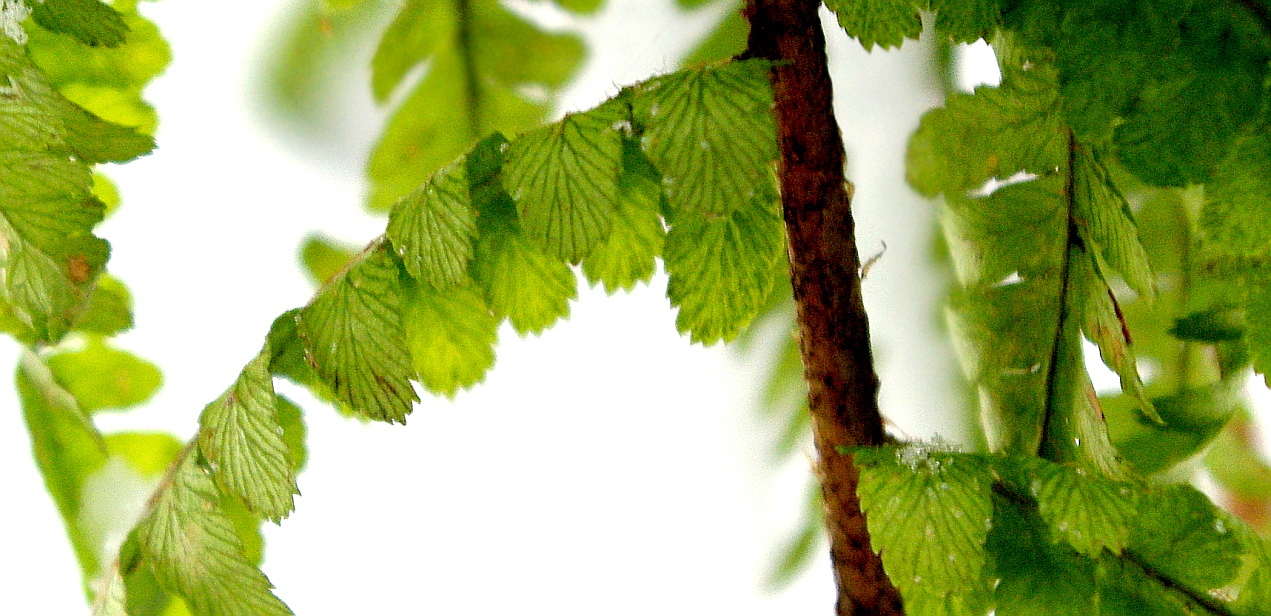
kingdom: Plantae
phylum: Tracheophyta
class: Polypodiopsida
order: Polypodiales
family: Dryopteridaceae
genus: Dryopteris
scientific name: Dryopteris filix-mas
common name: Male fern
